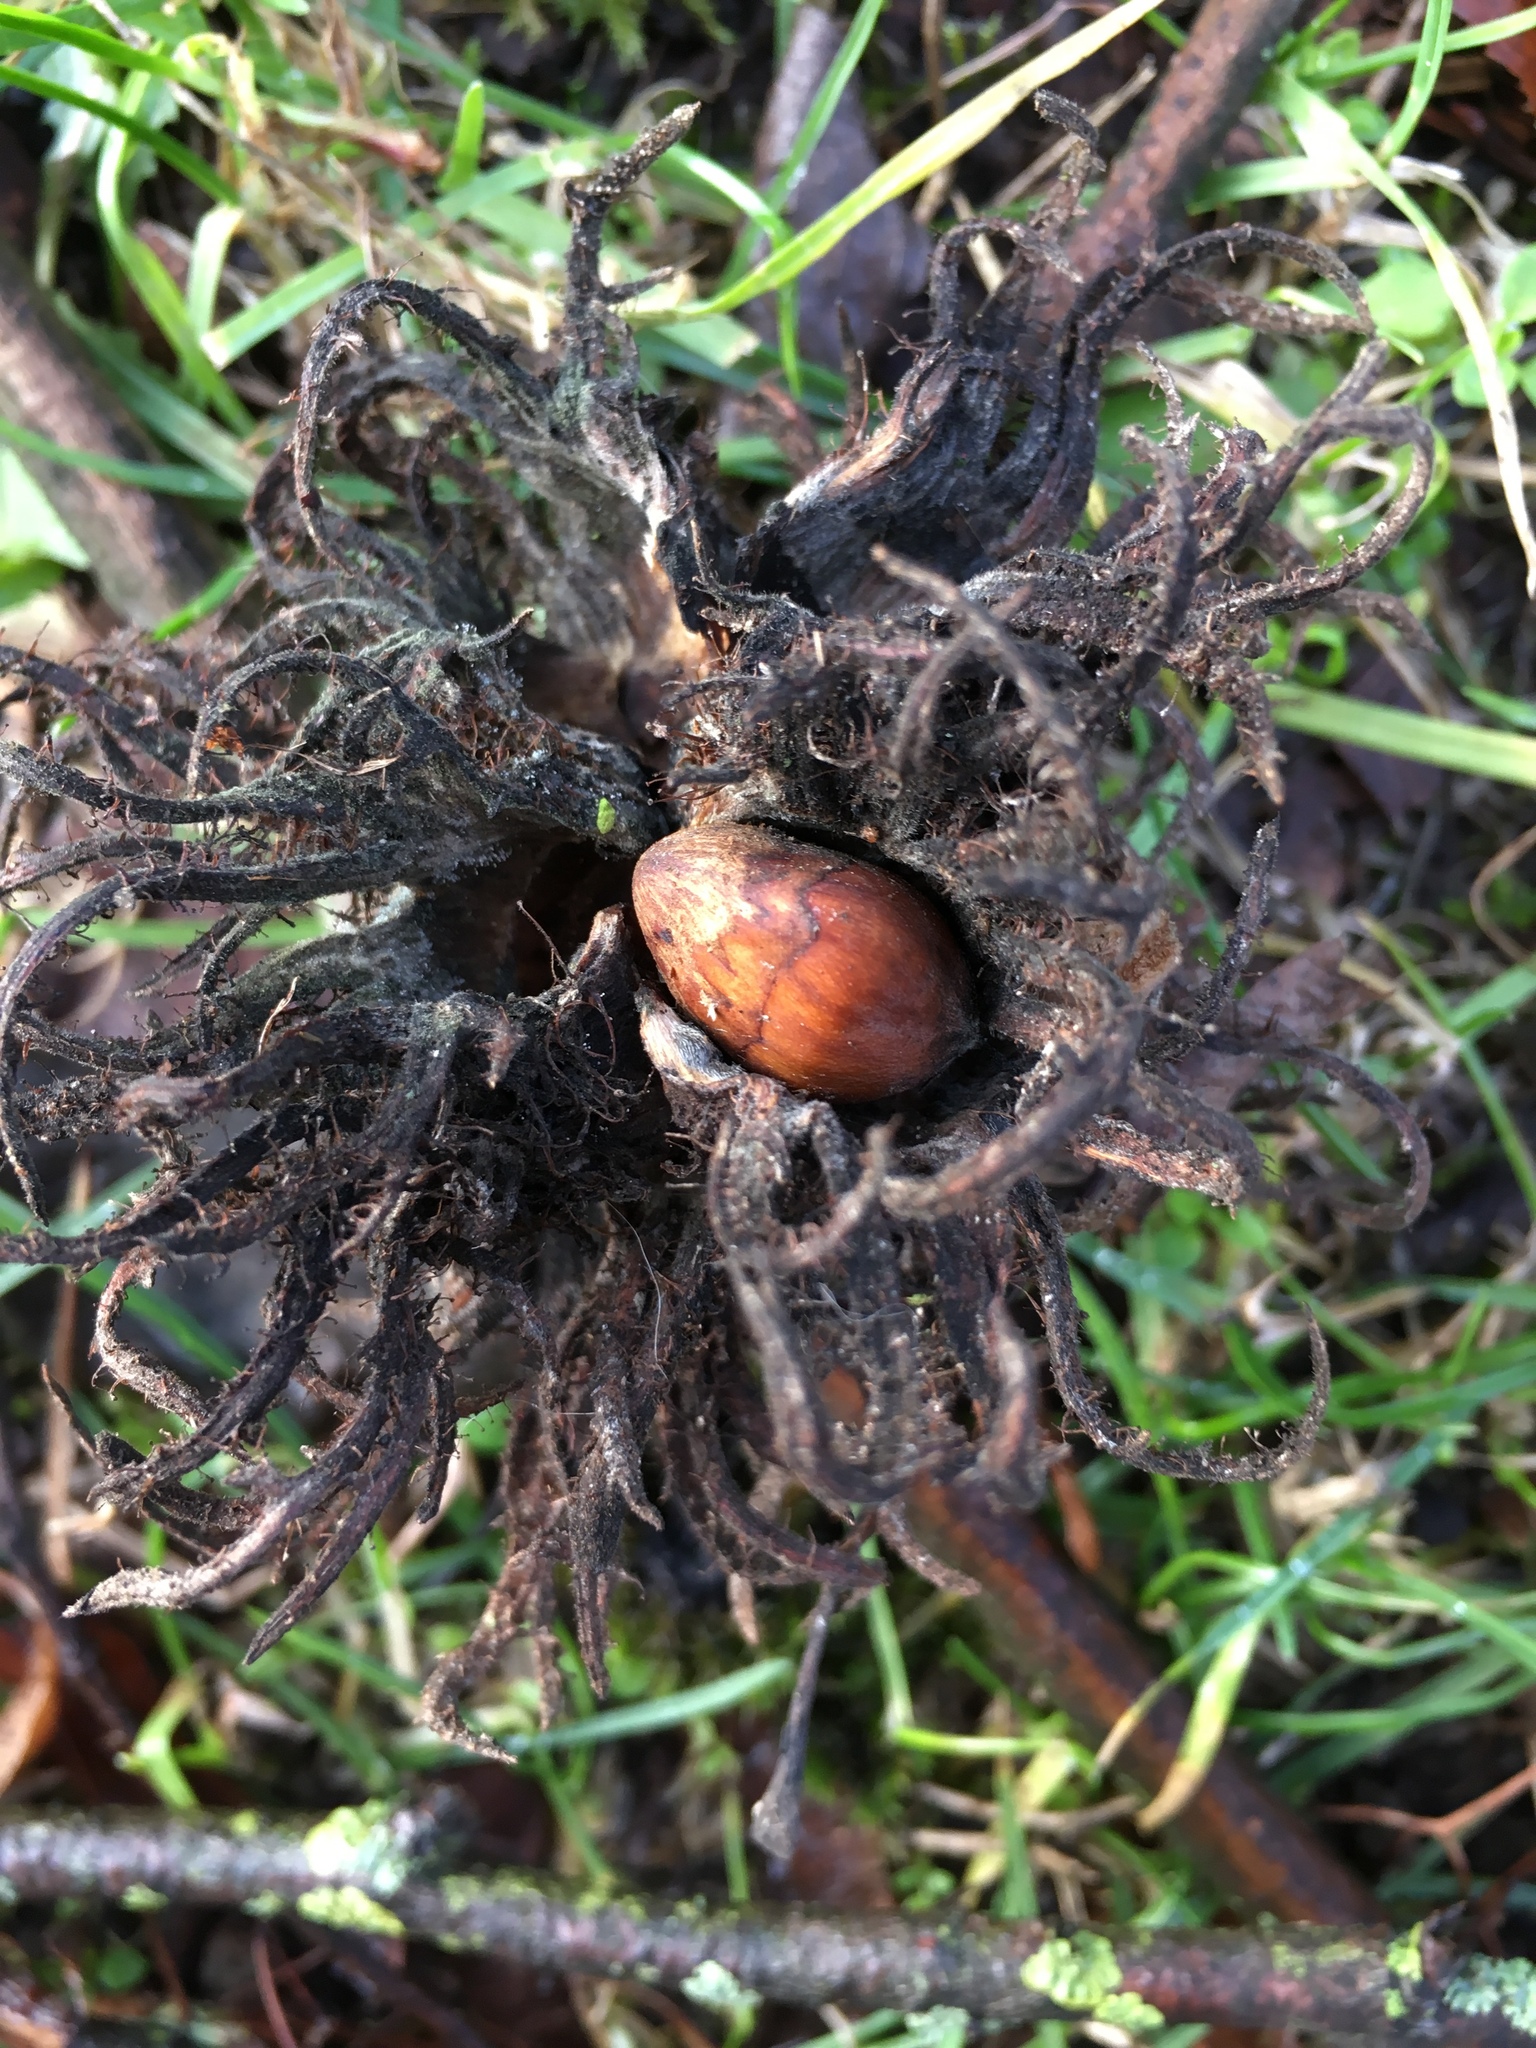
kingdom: Plantae
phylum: Tracheophyta
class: Magnoliopsida
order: Fagales
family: Betulaceae
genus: Corylus
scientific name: Corylus colurna
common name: Turkish hazel
